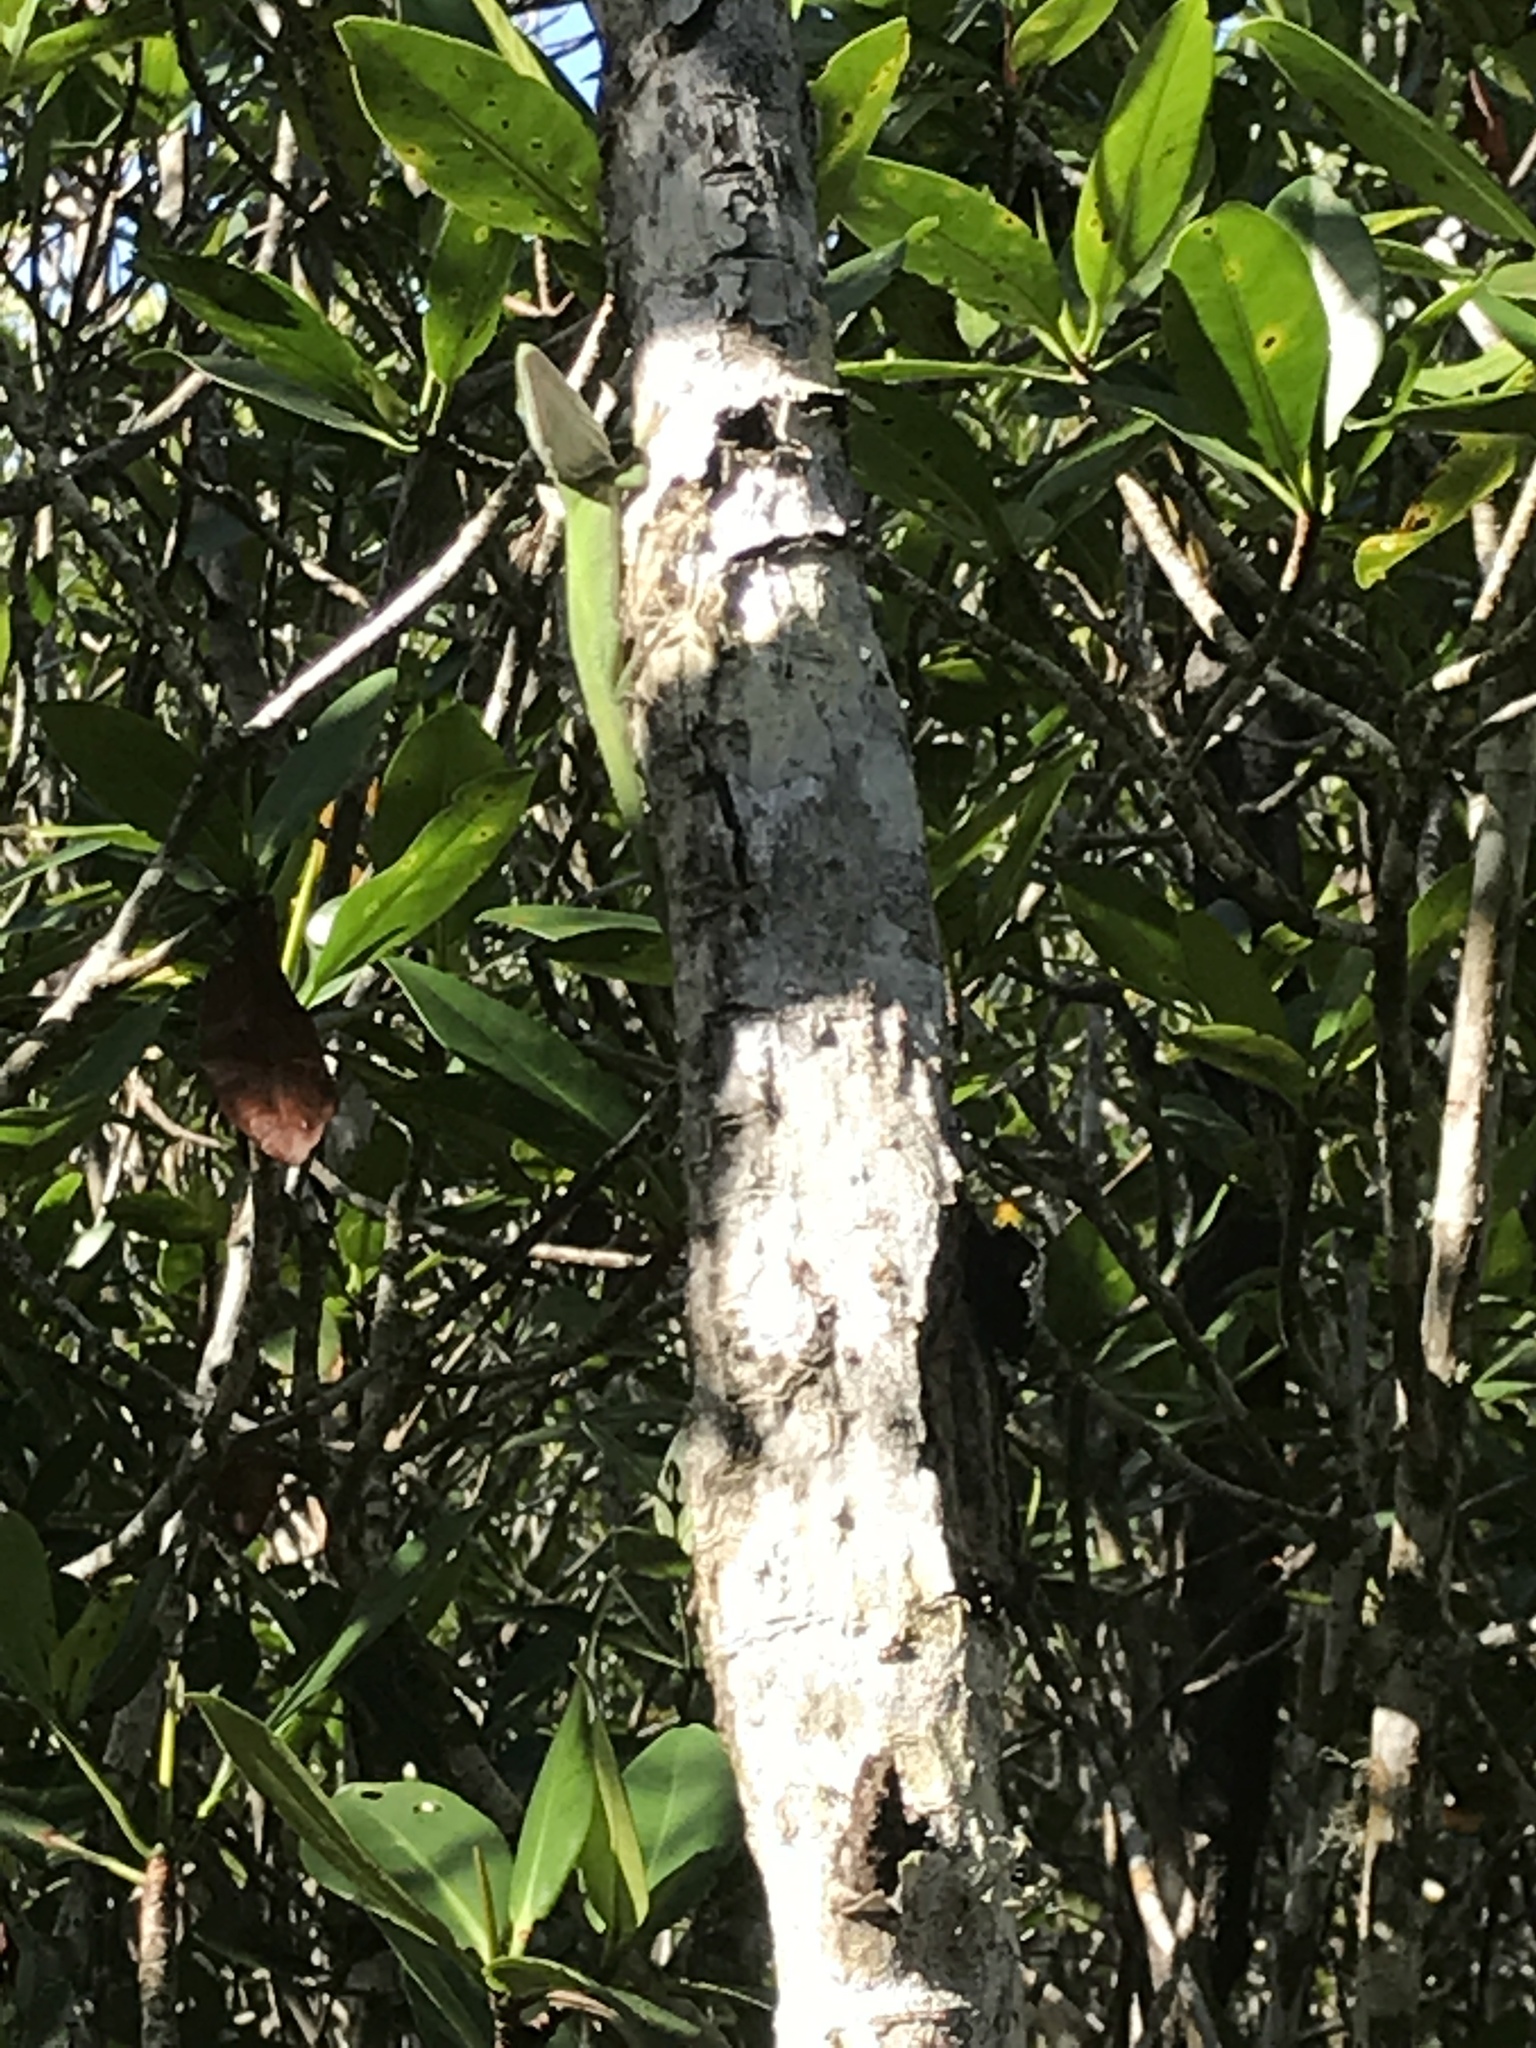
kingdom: Animalia
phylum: Chordata
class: Squamata
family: Dactyloidae
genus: Anolis
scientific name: Anolis carolinensis
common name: Green anole
